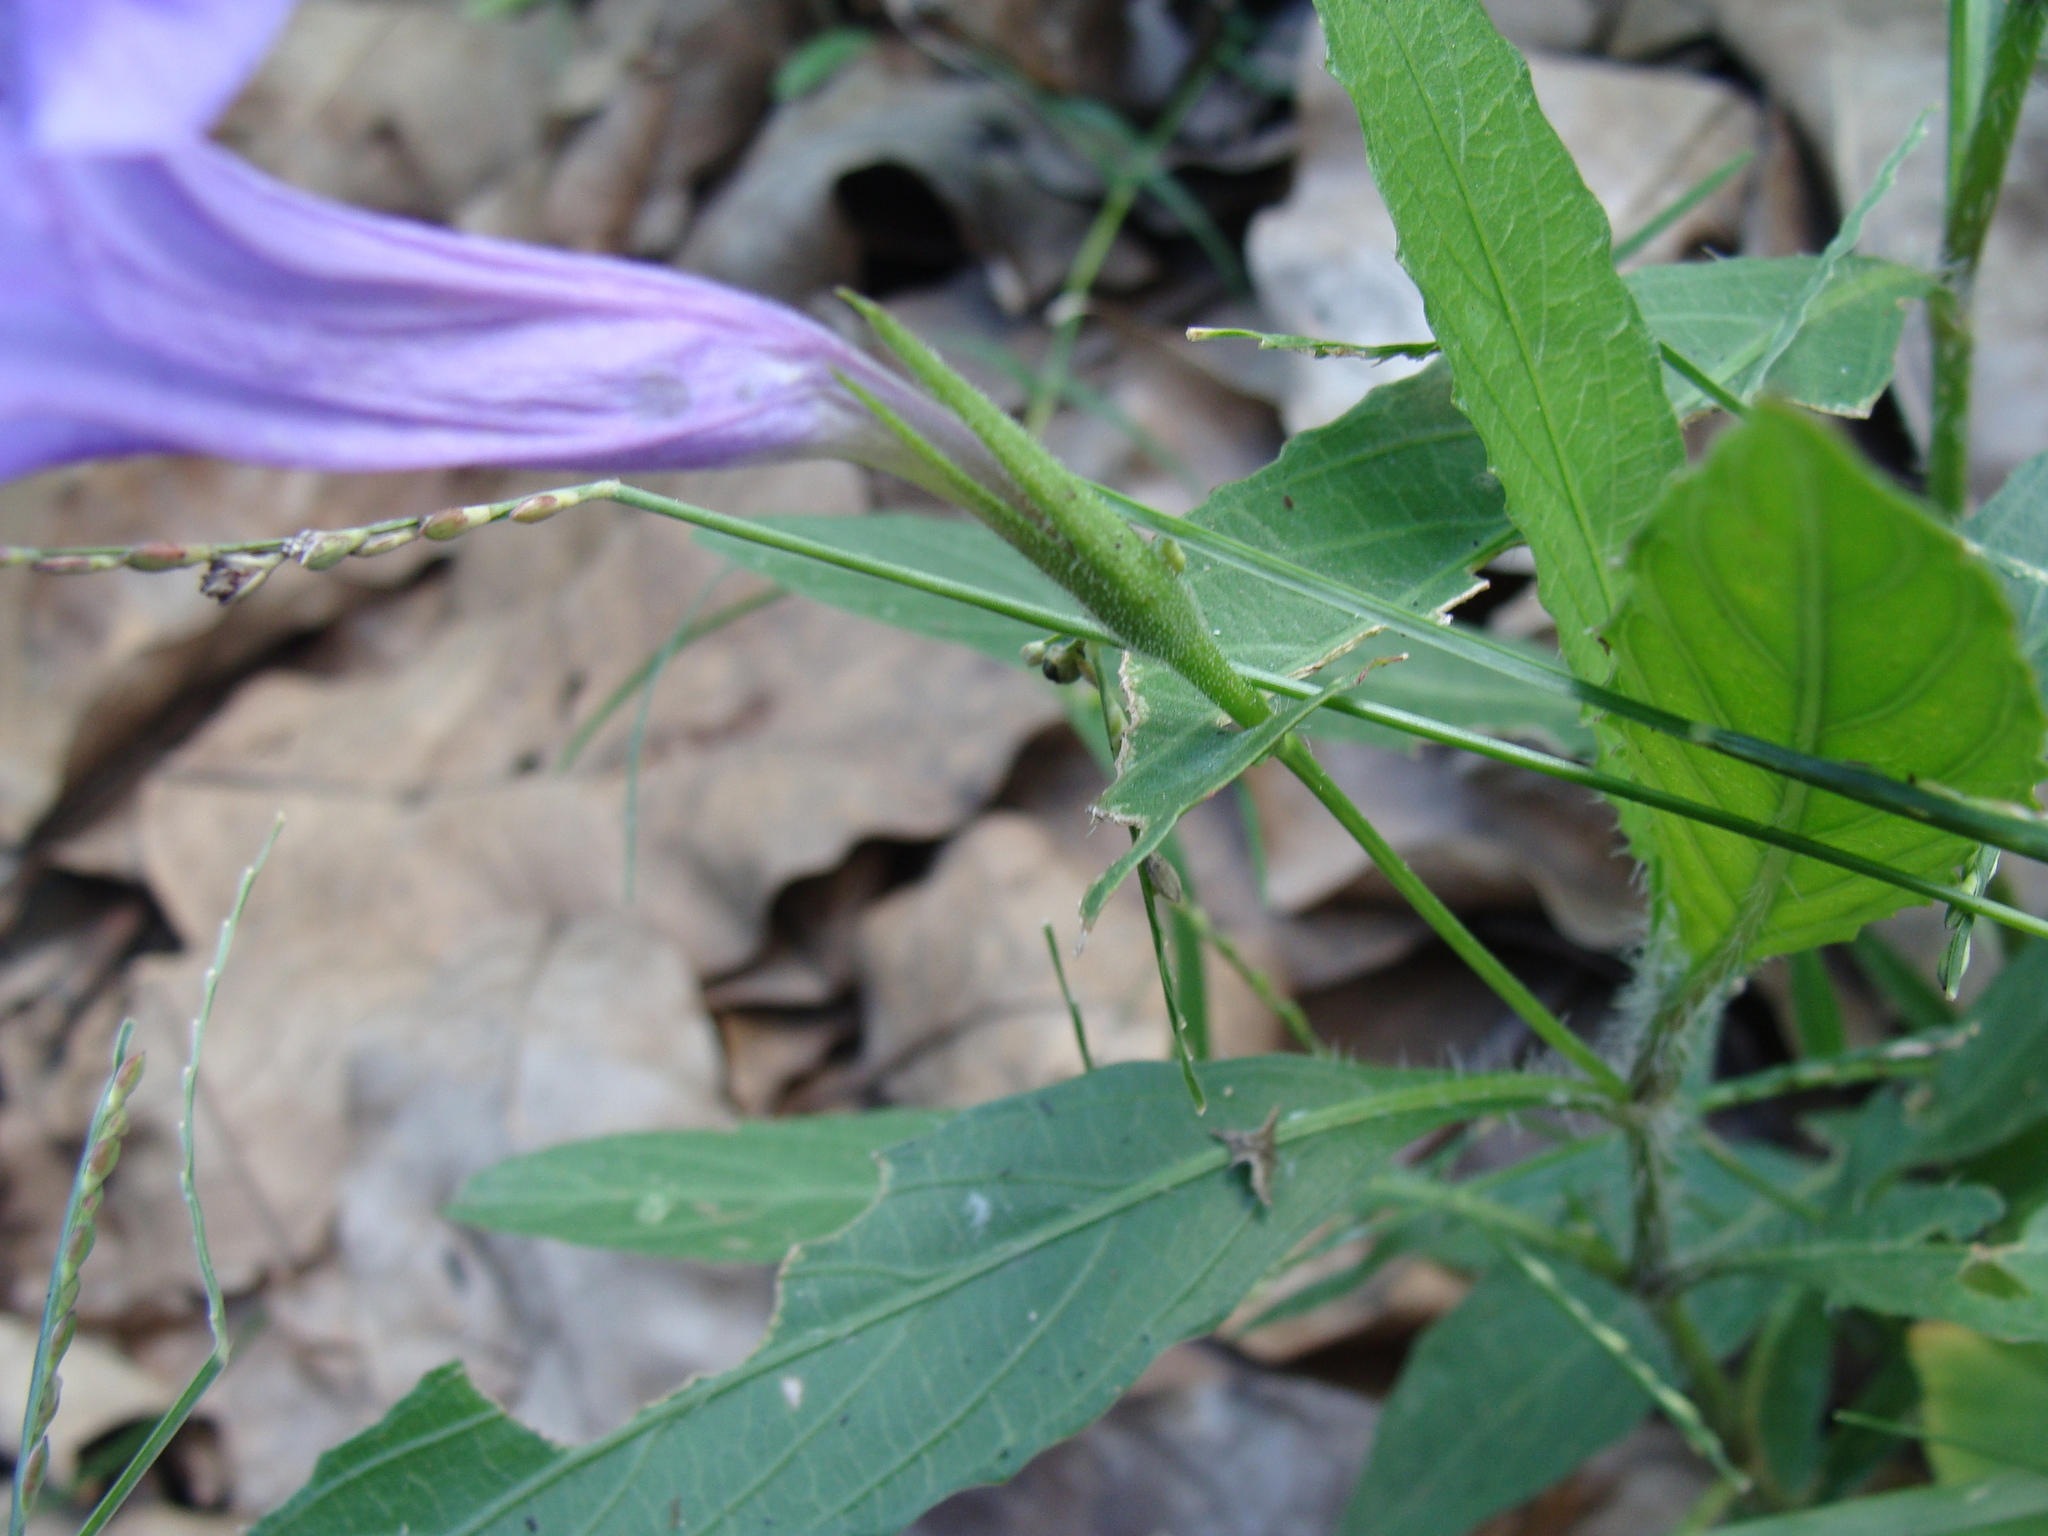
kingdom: Plantae
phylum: Tracheophyta
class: Magnoliopsida
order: Lamiales
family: Acanthaceae
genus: Ruellia
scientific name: Ruellia ciliatiflora
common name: Hairyflower wild petunia
